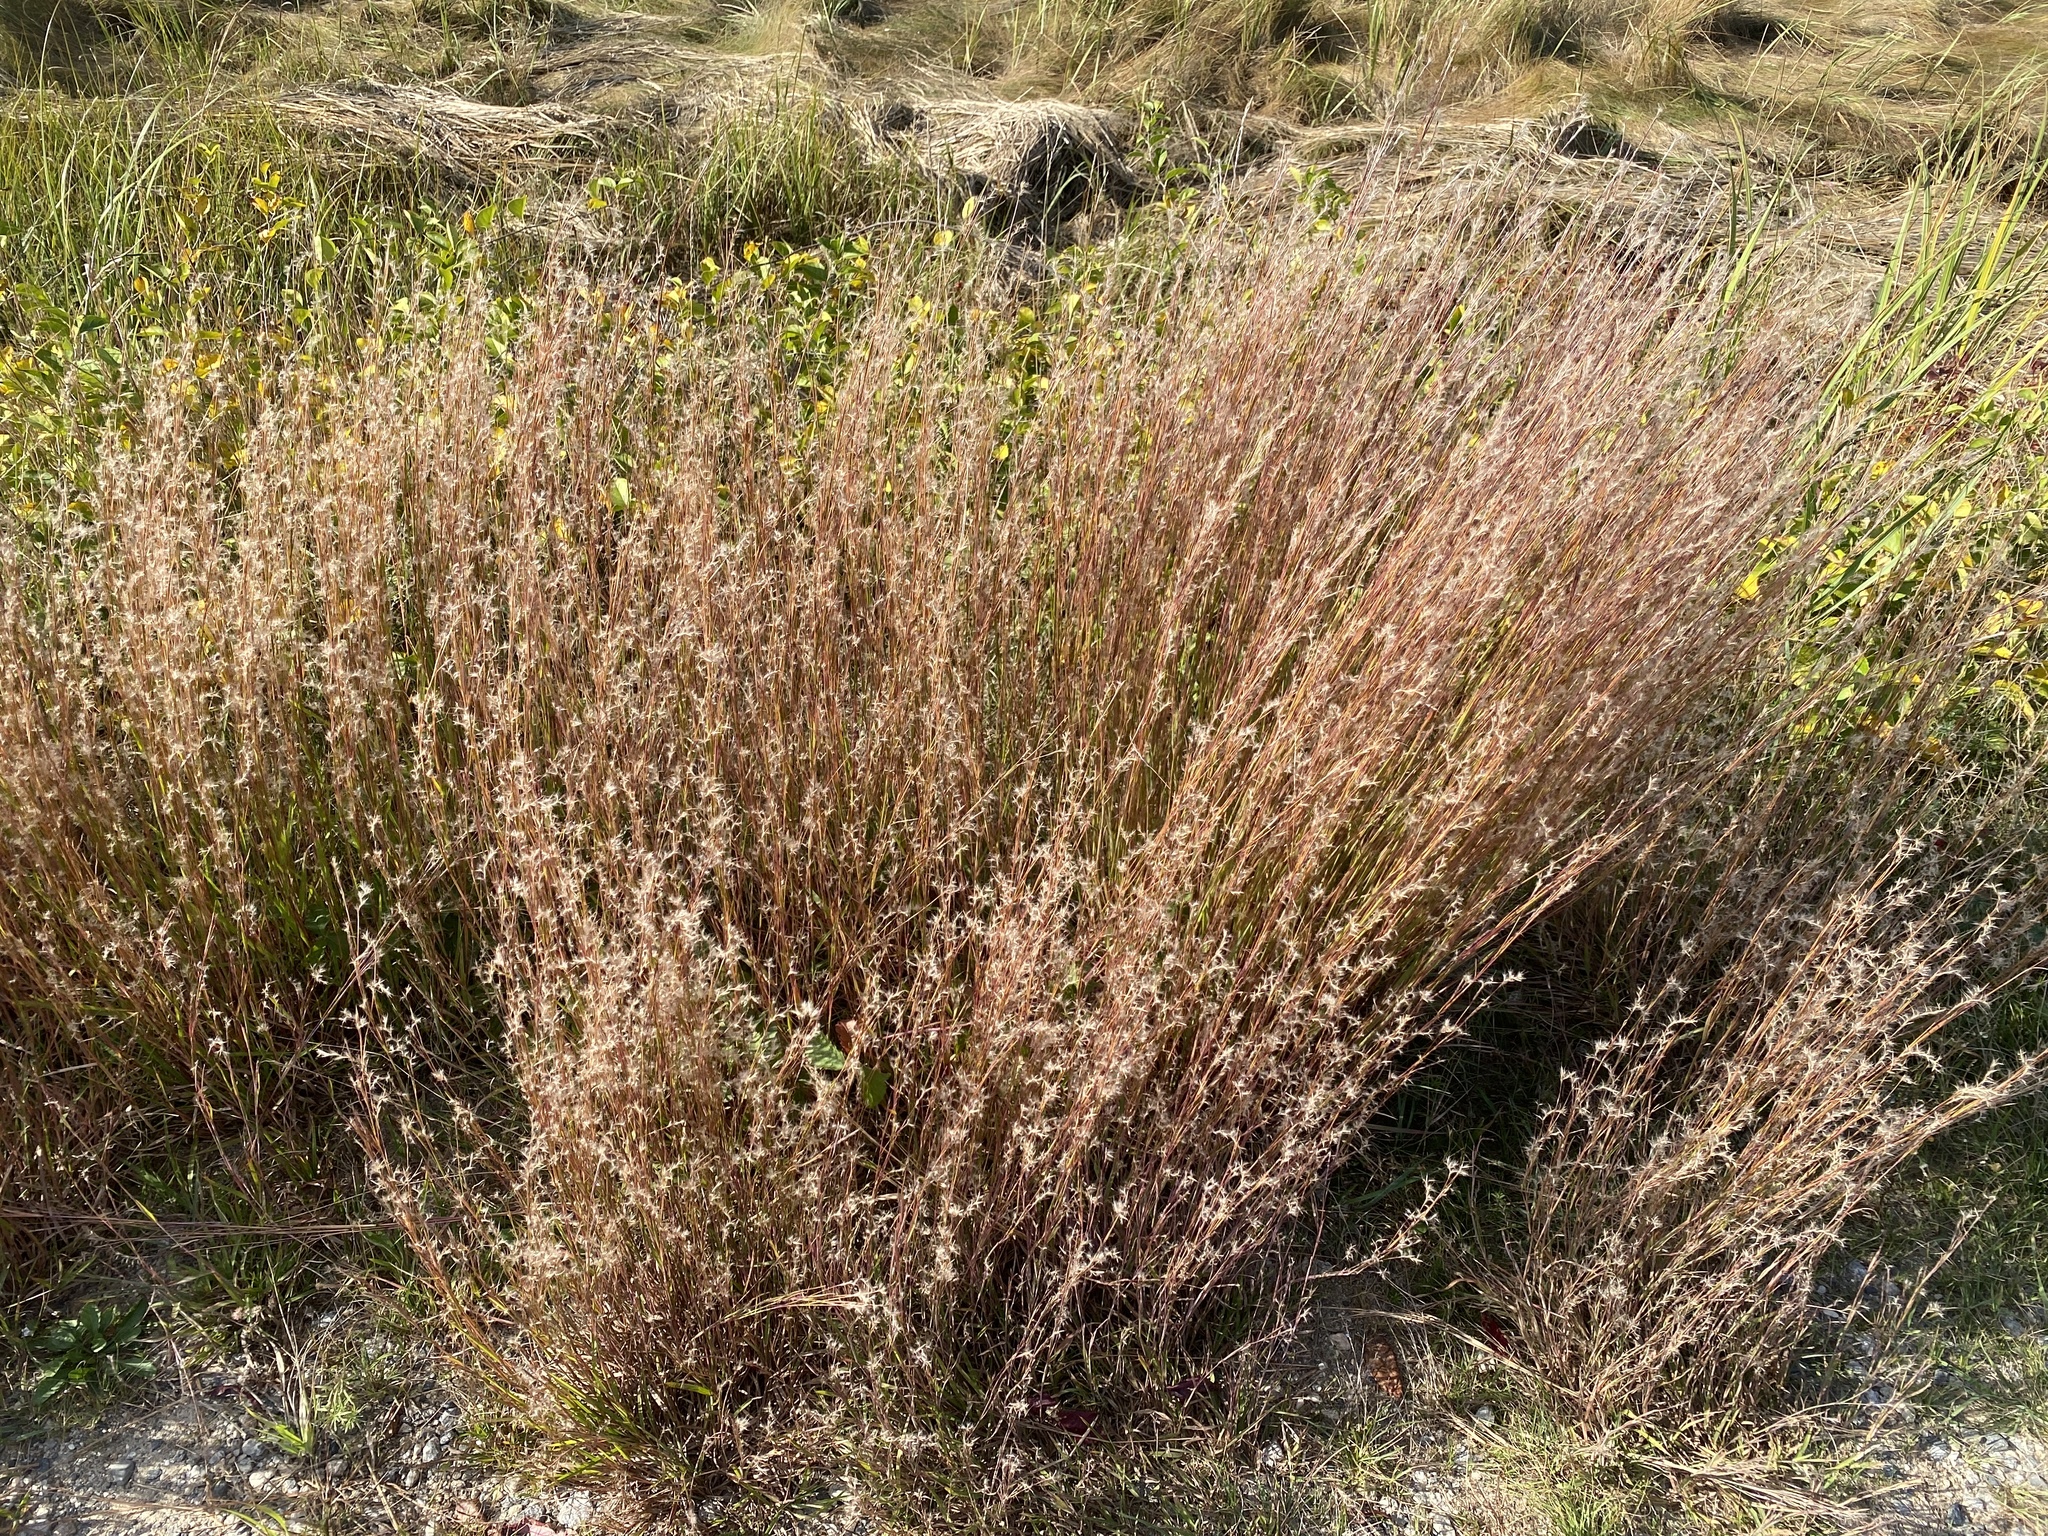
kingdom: Plantae
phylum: Tracheophyta
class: Liliopsida
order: Poales
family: Poaceae
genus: Schizachyrium
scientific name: Schizachyrium scoparium
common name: Little bluestem
